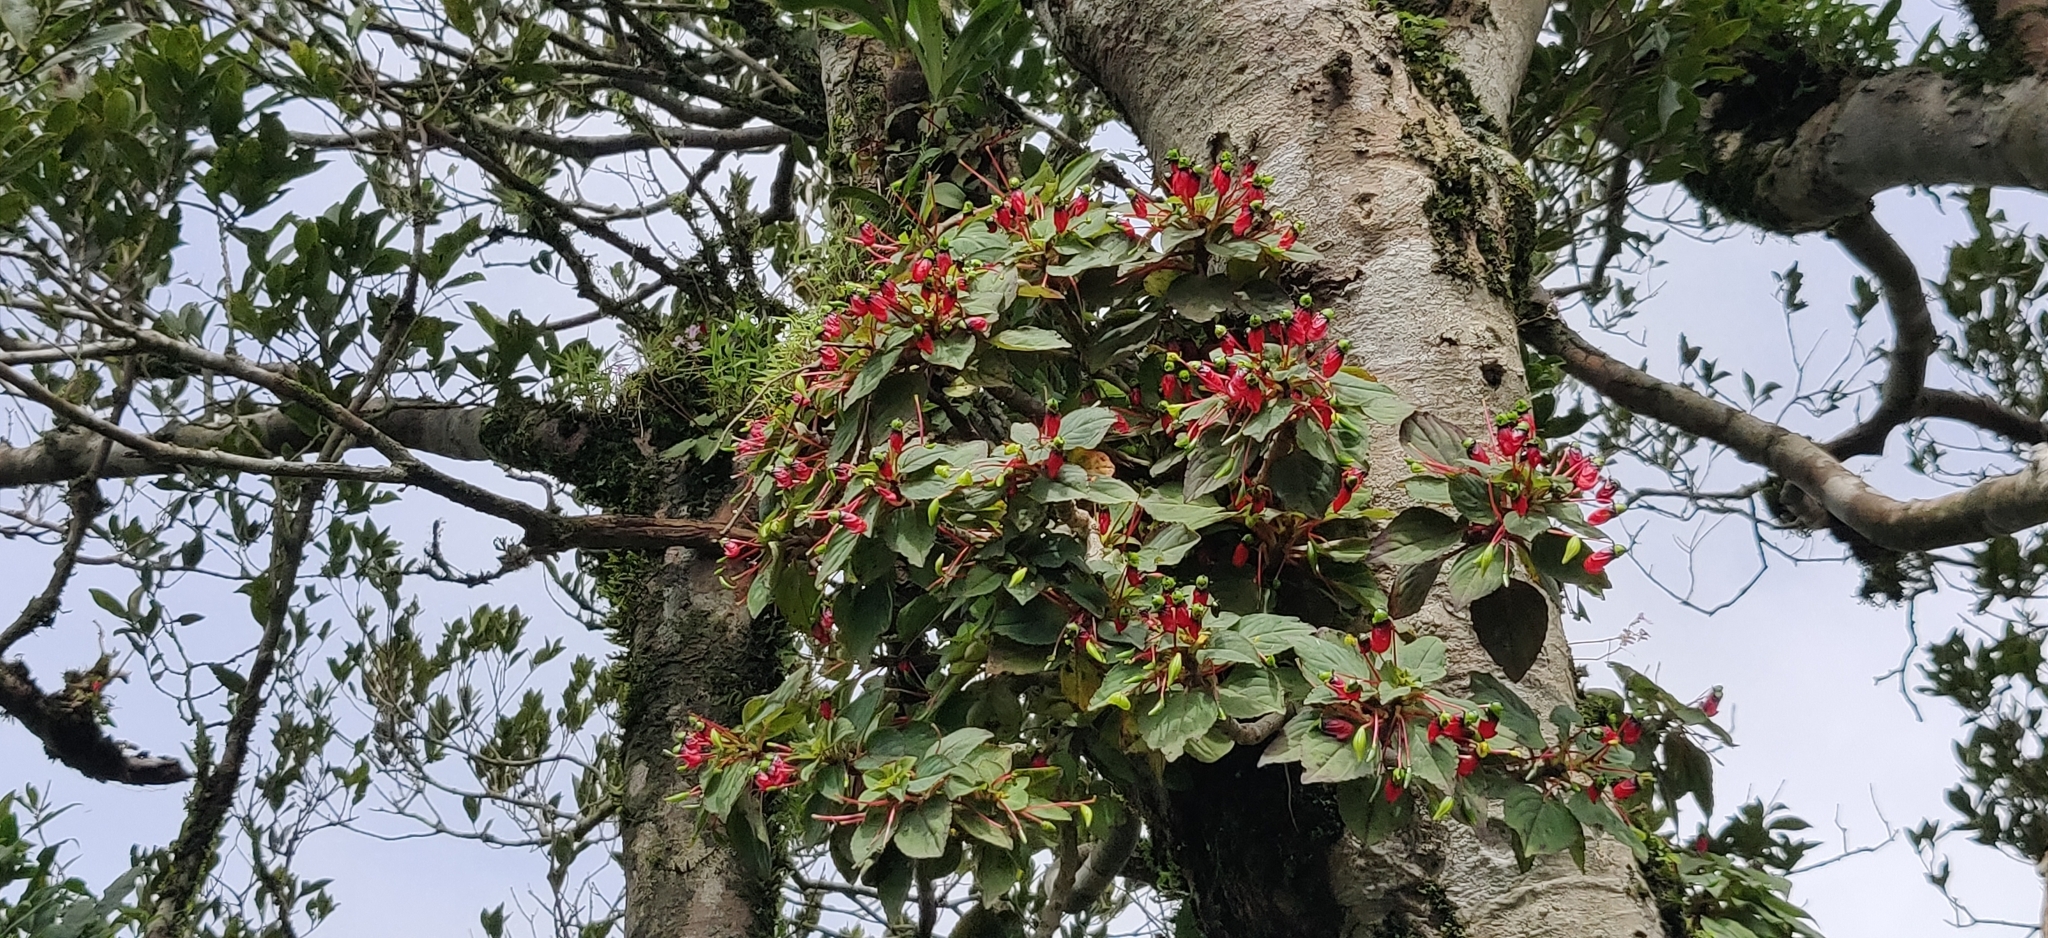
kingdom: Plantae
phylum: Tracheophyta
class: Magnoliopsida
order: Ericales
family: Balsaminaceae
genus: Impatiens
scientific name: Impatiens parasitica
